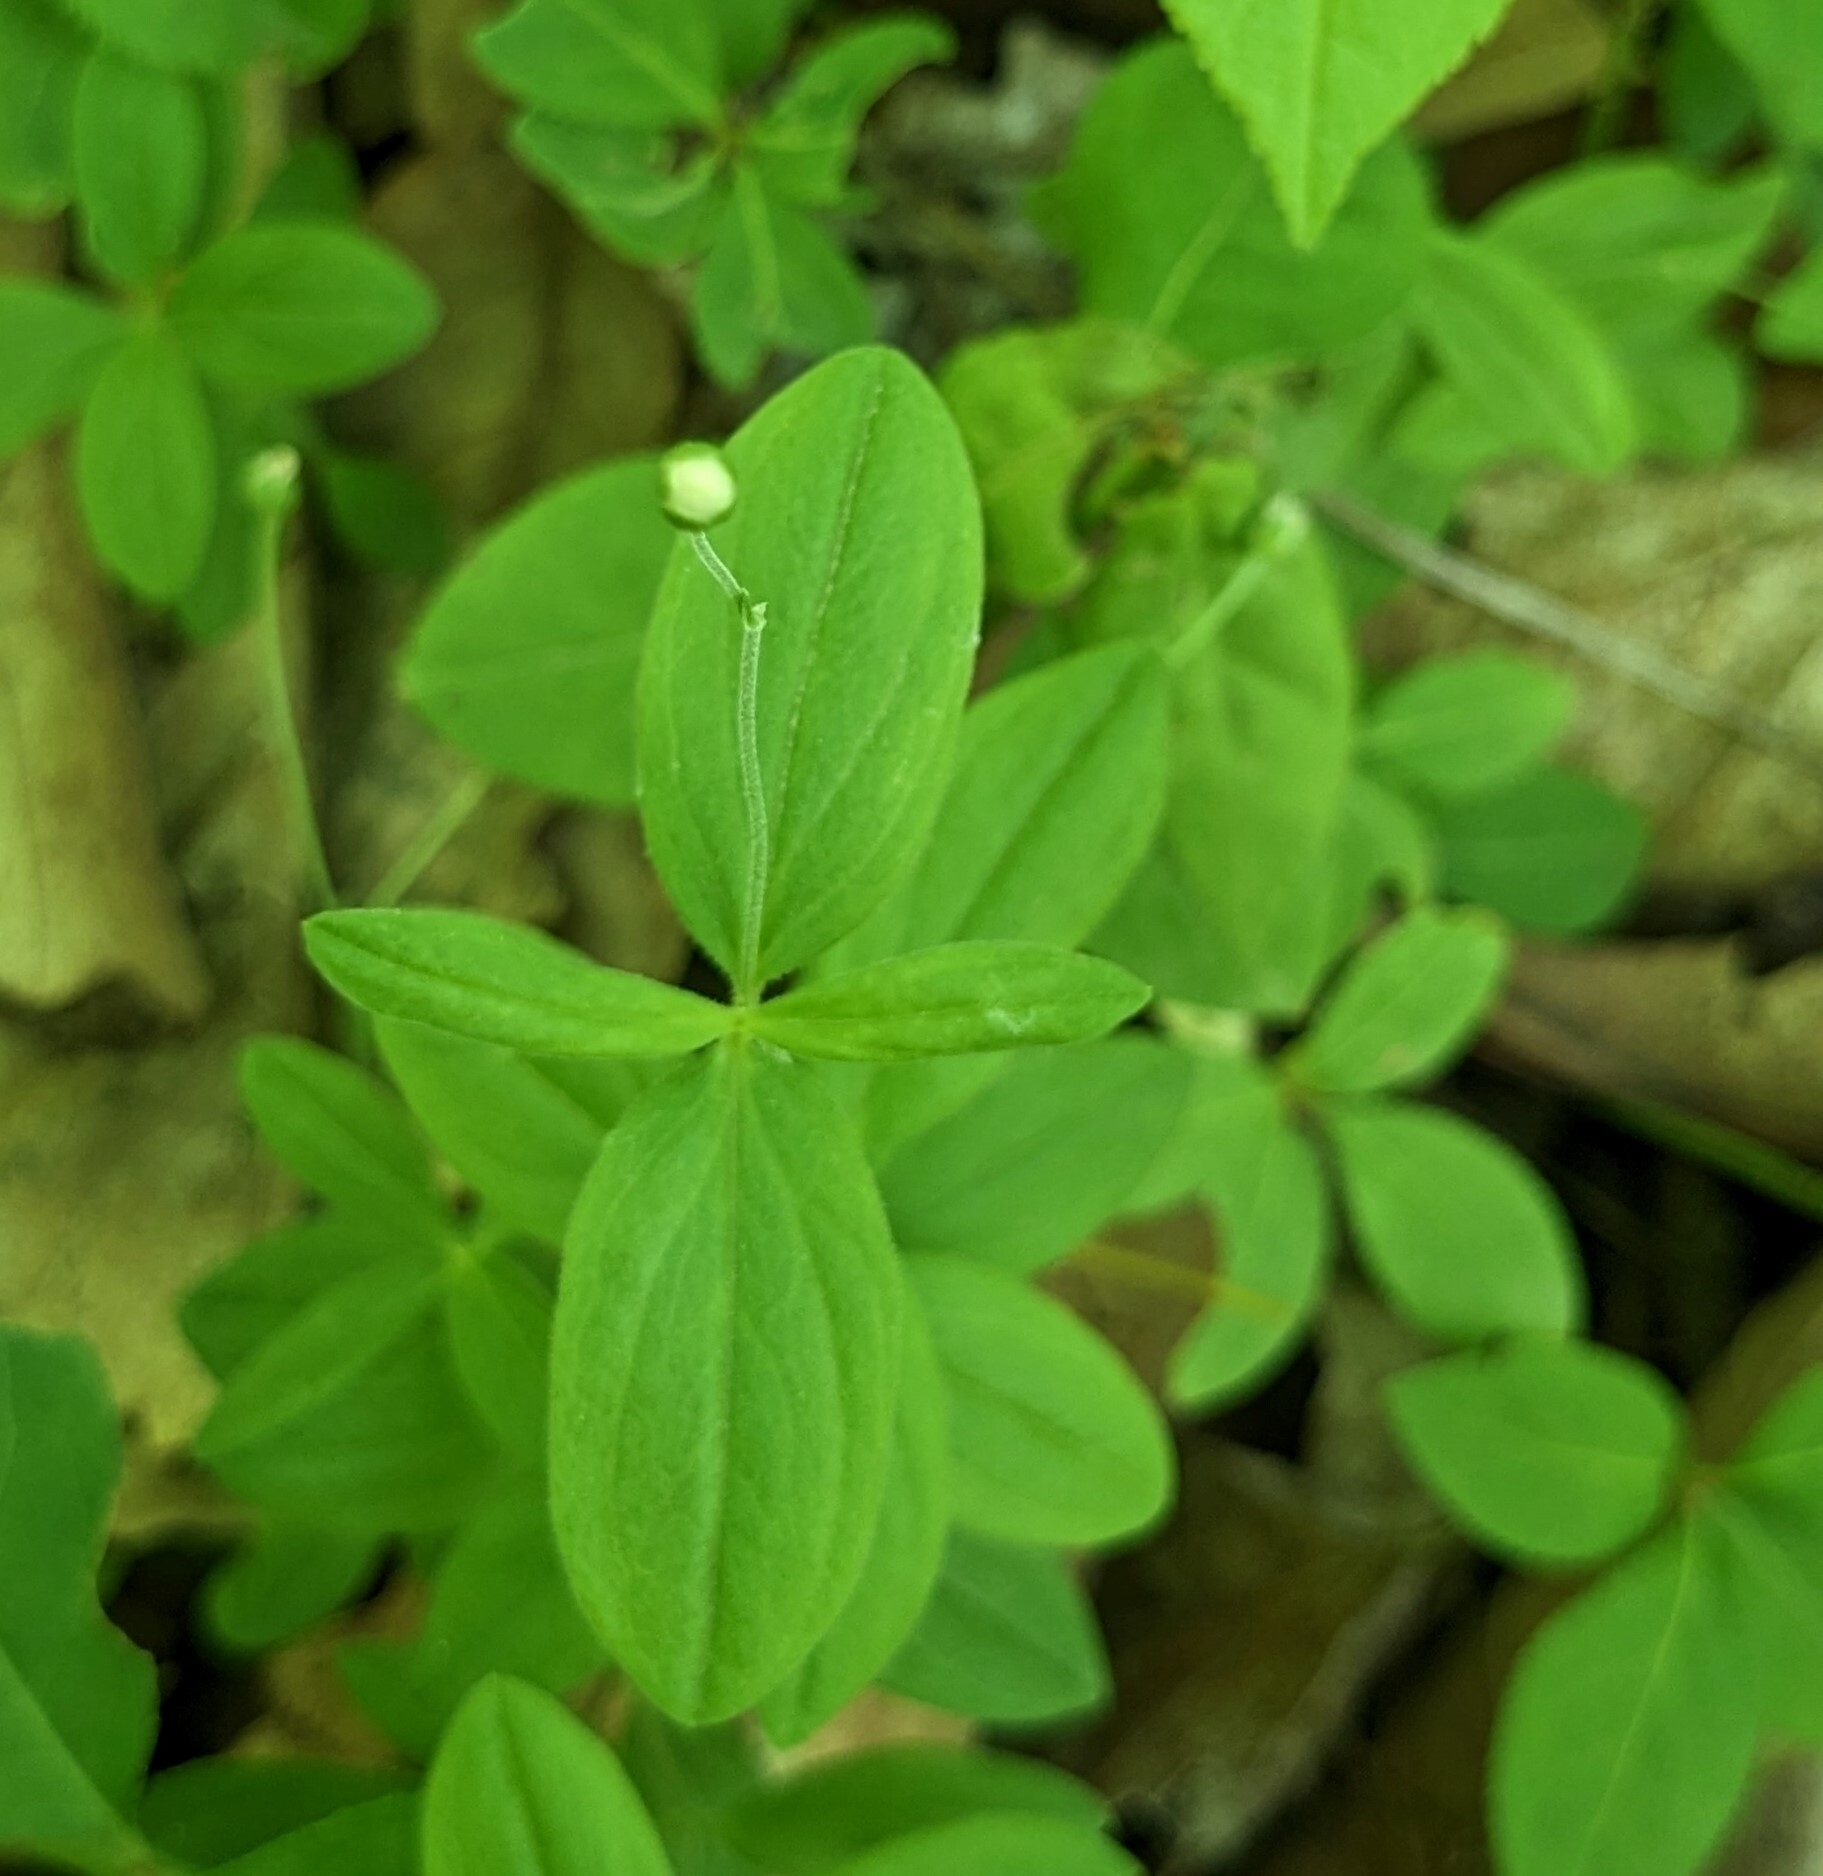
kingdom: Plantae
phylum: Tracheophyta
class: Magnoliopsida
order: Caryophyllales
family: Caryophyllaceae
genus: Moehringia
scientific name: Moehringia lateriflora
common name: Blunt-leaved sandwort
